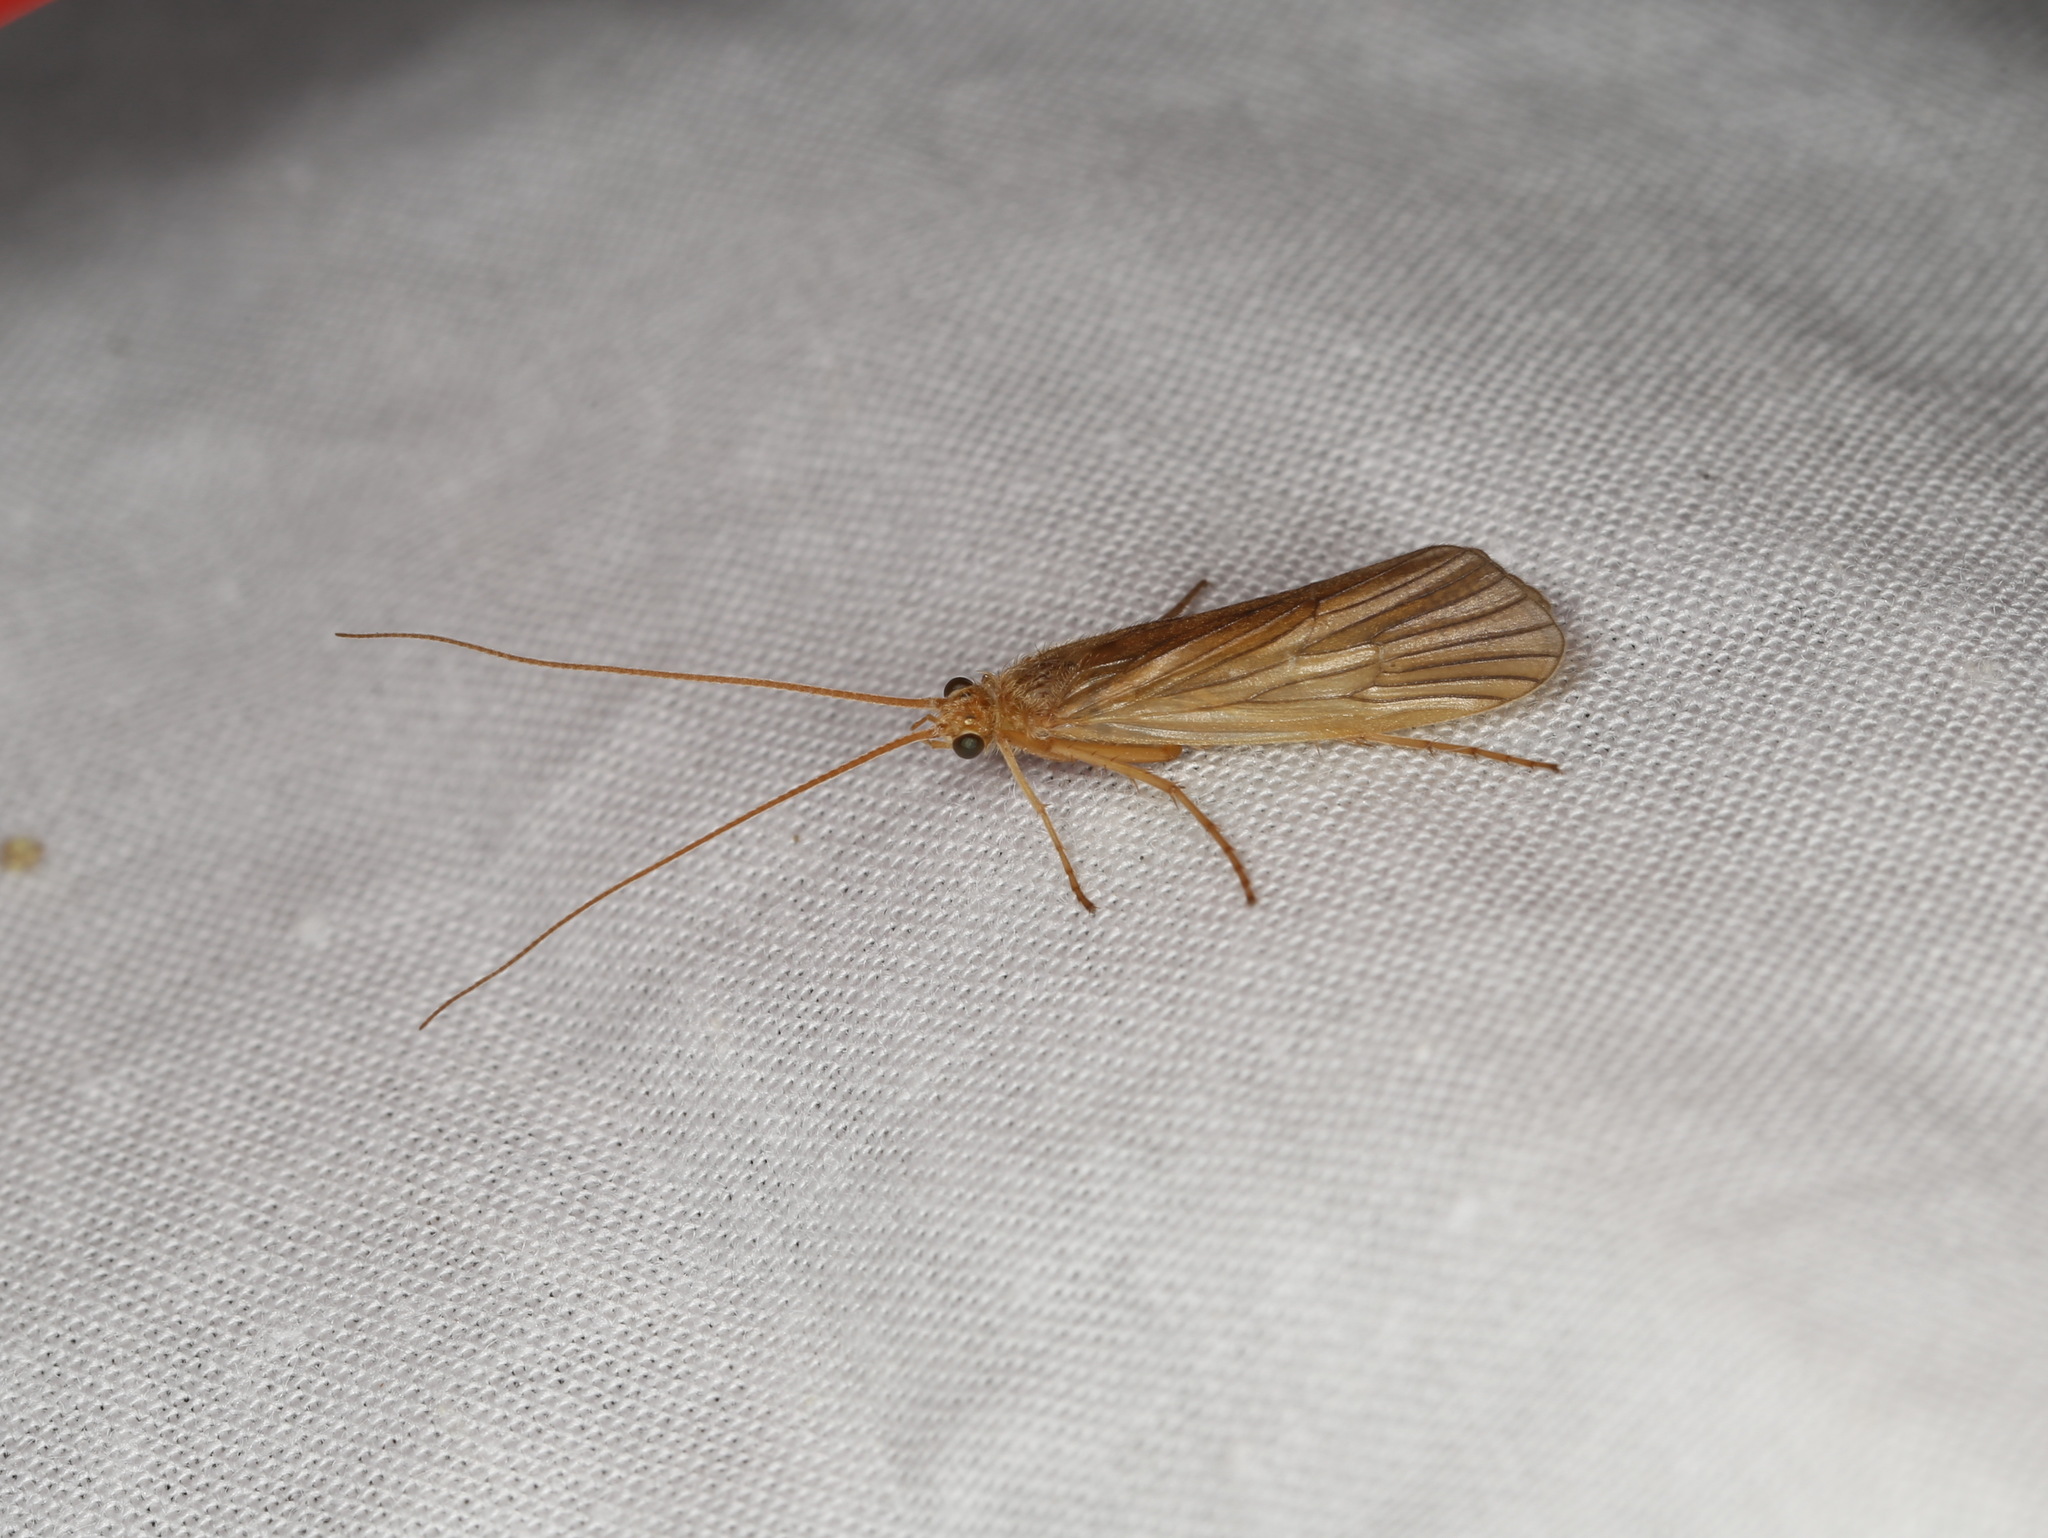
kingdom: Animalia
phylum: Arthropoda
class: Insecta
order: Trichoptera
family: Phryganeidae
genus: Agrypnia
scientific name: Agrypnia pagetana
